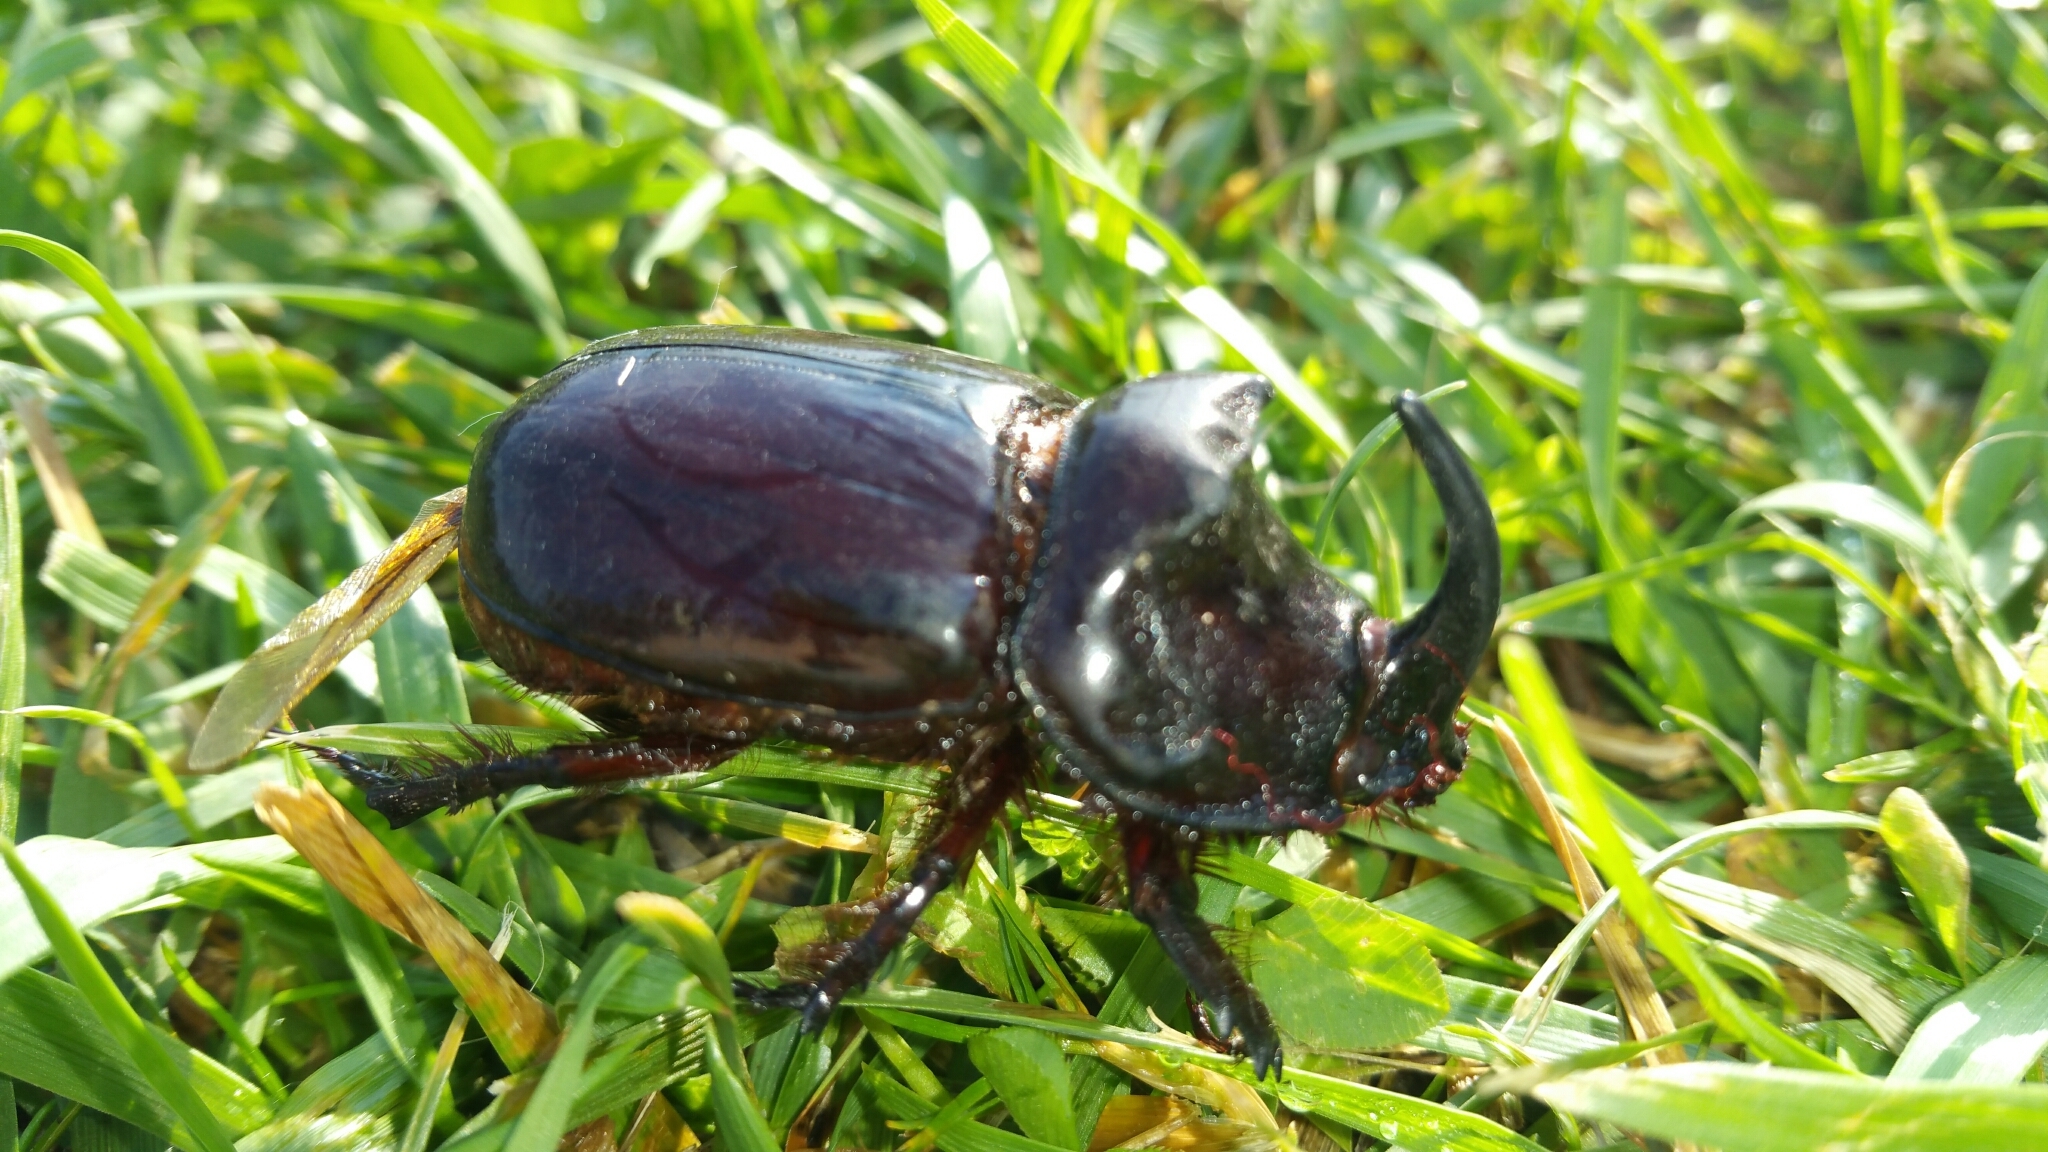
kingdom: Animalia
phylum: Arthropoda
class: Insecta
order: Coleoptera
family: Scarabaeidae
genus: Oryctes
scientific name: Oryctes nasicornis
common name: European rhinoceros beetle
